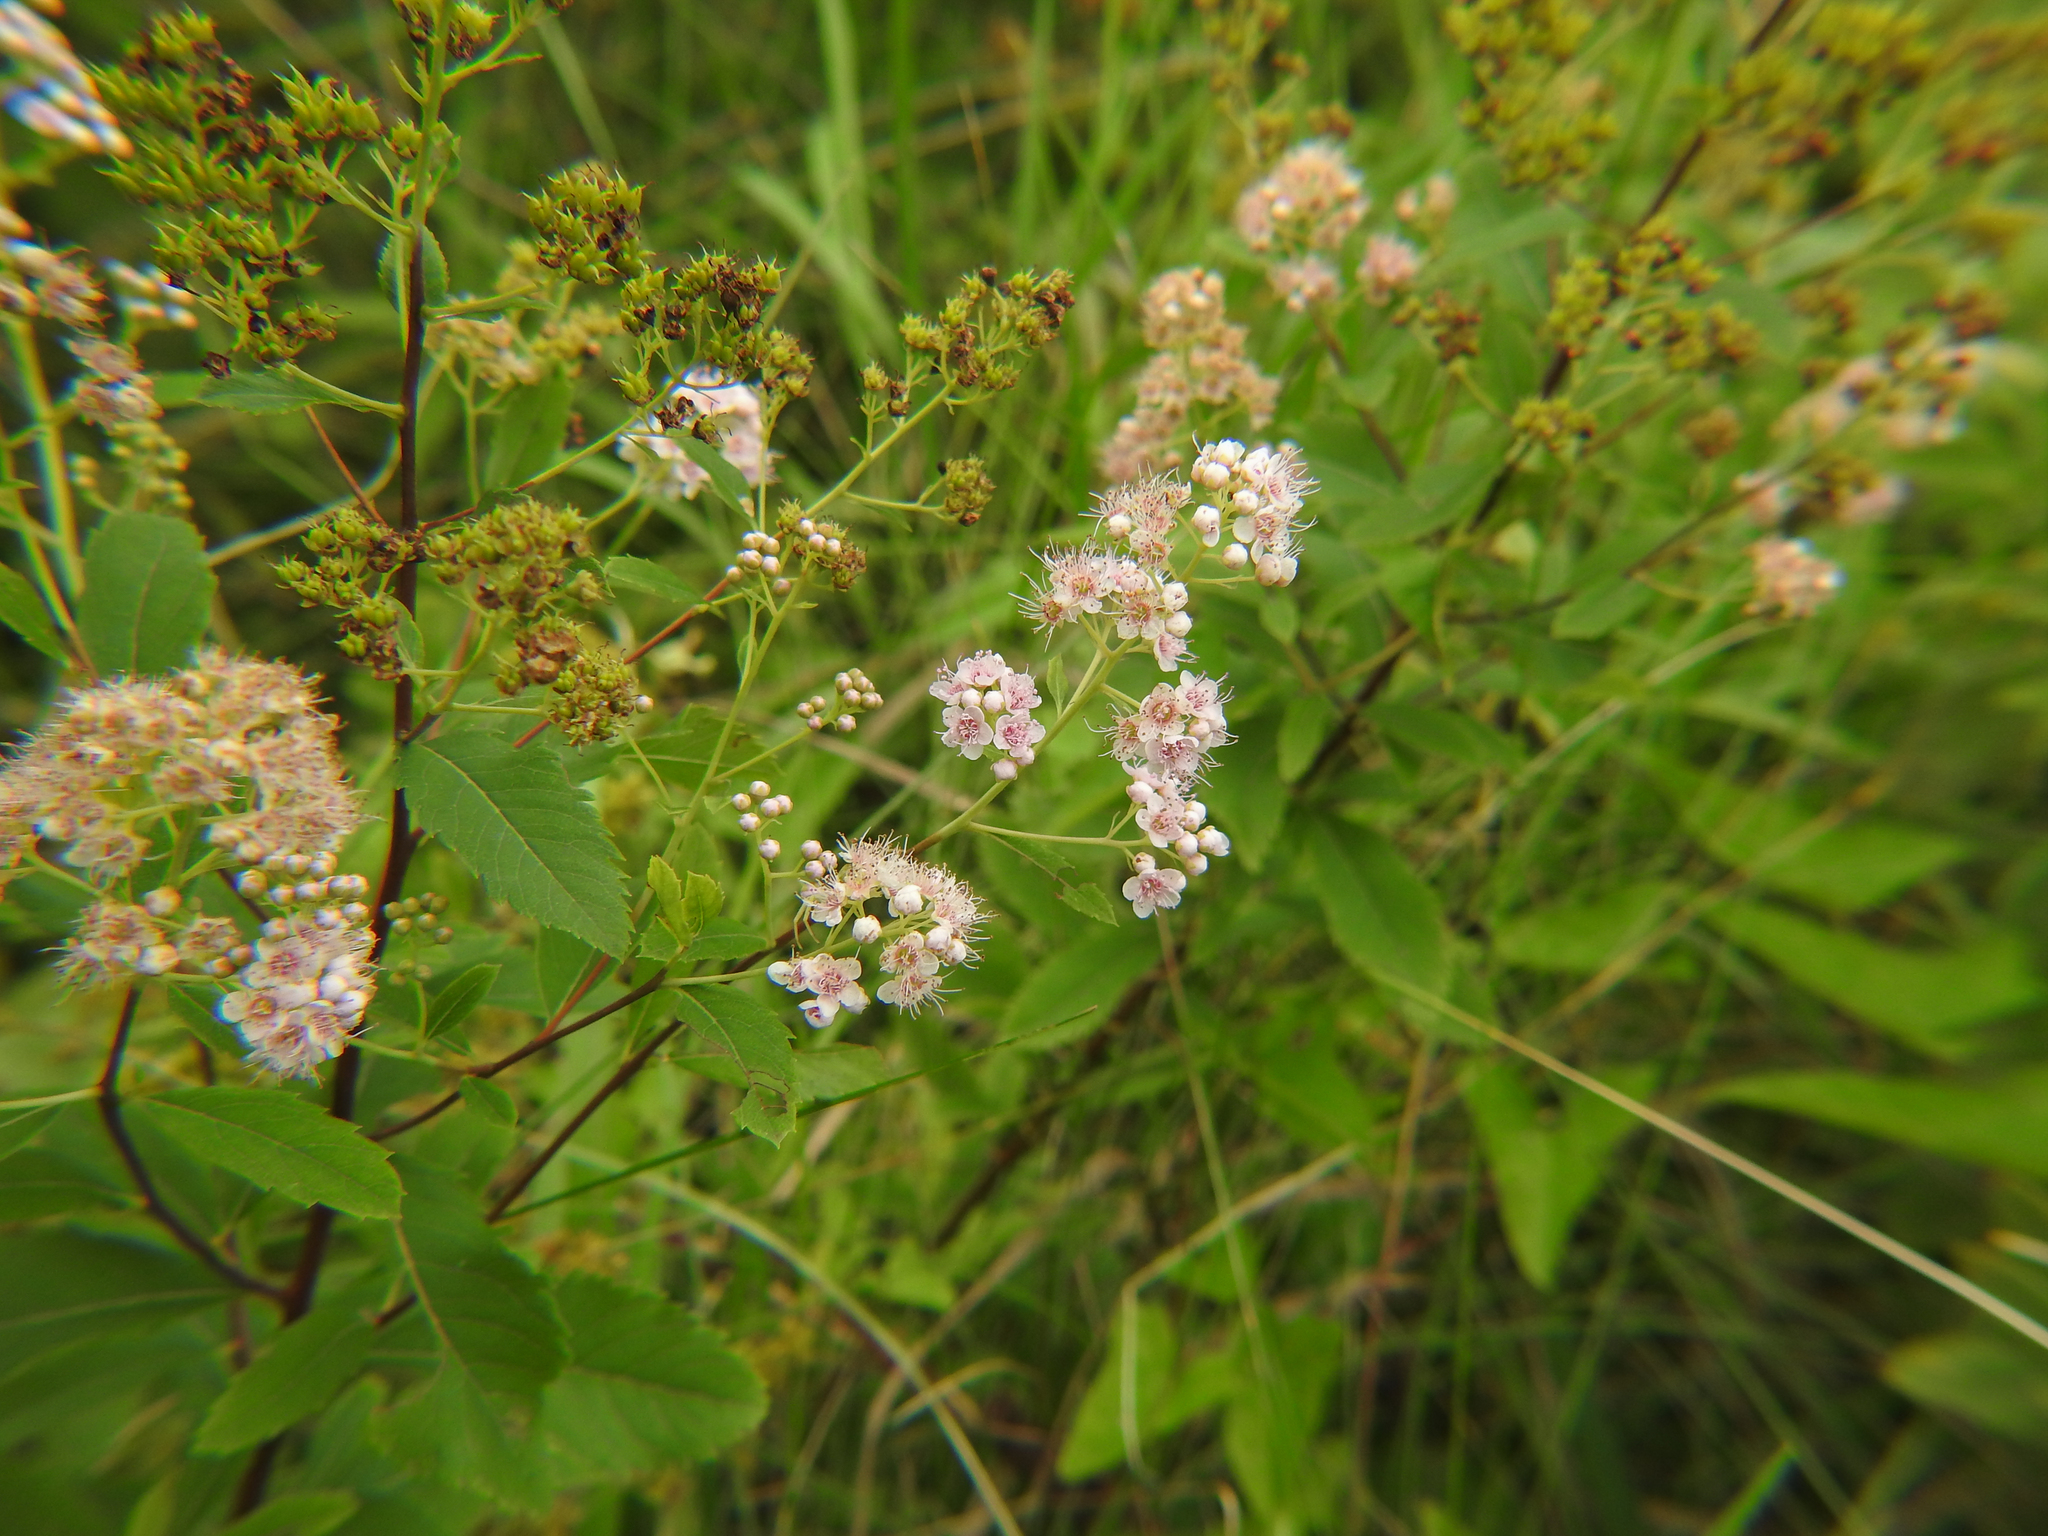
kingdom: Plantae
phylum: Tracheophyta
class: Magnoliopsida
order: Rosales
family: Rosaceae
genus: Spiraea
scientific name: Spiraea alba
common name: Pale bridewort
